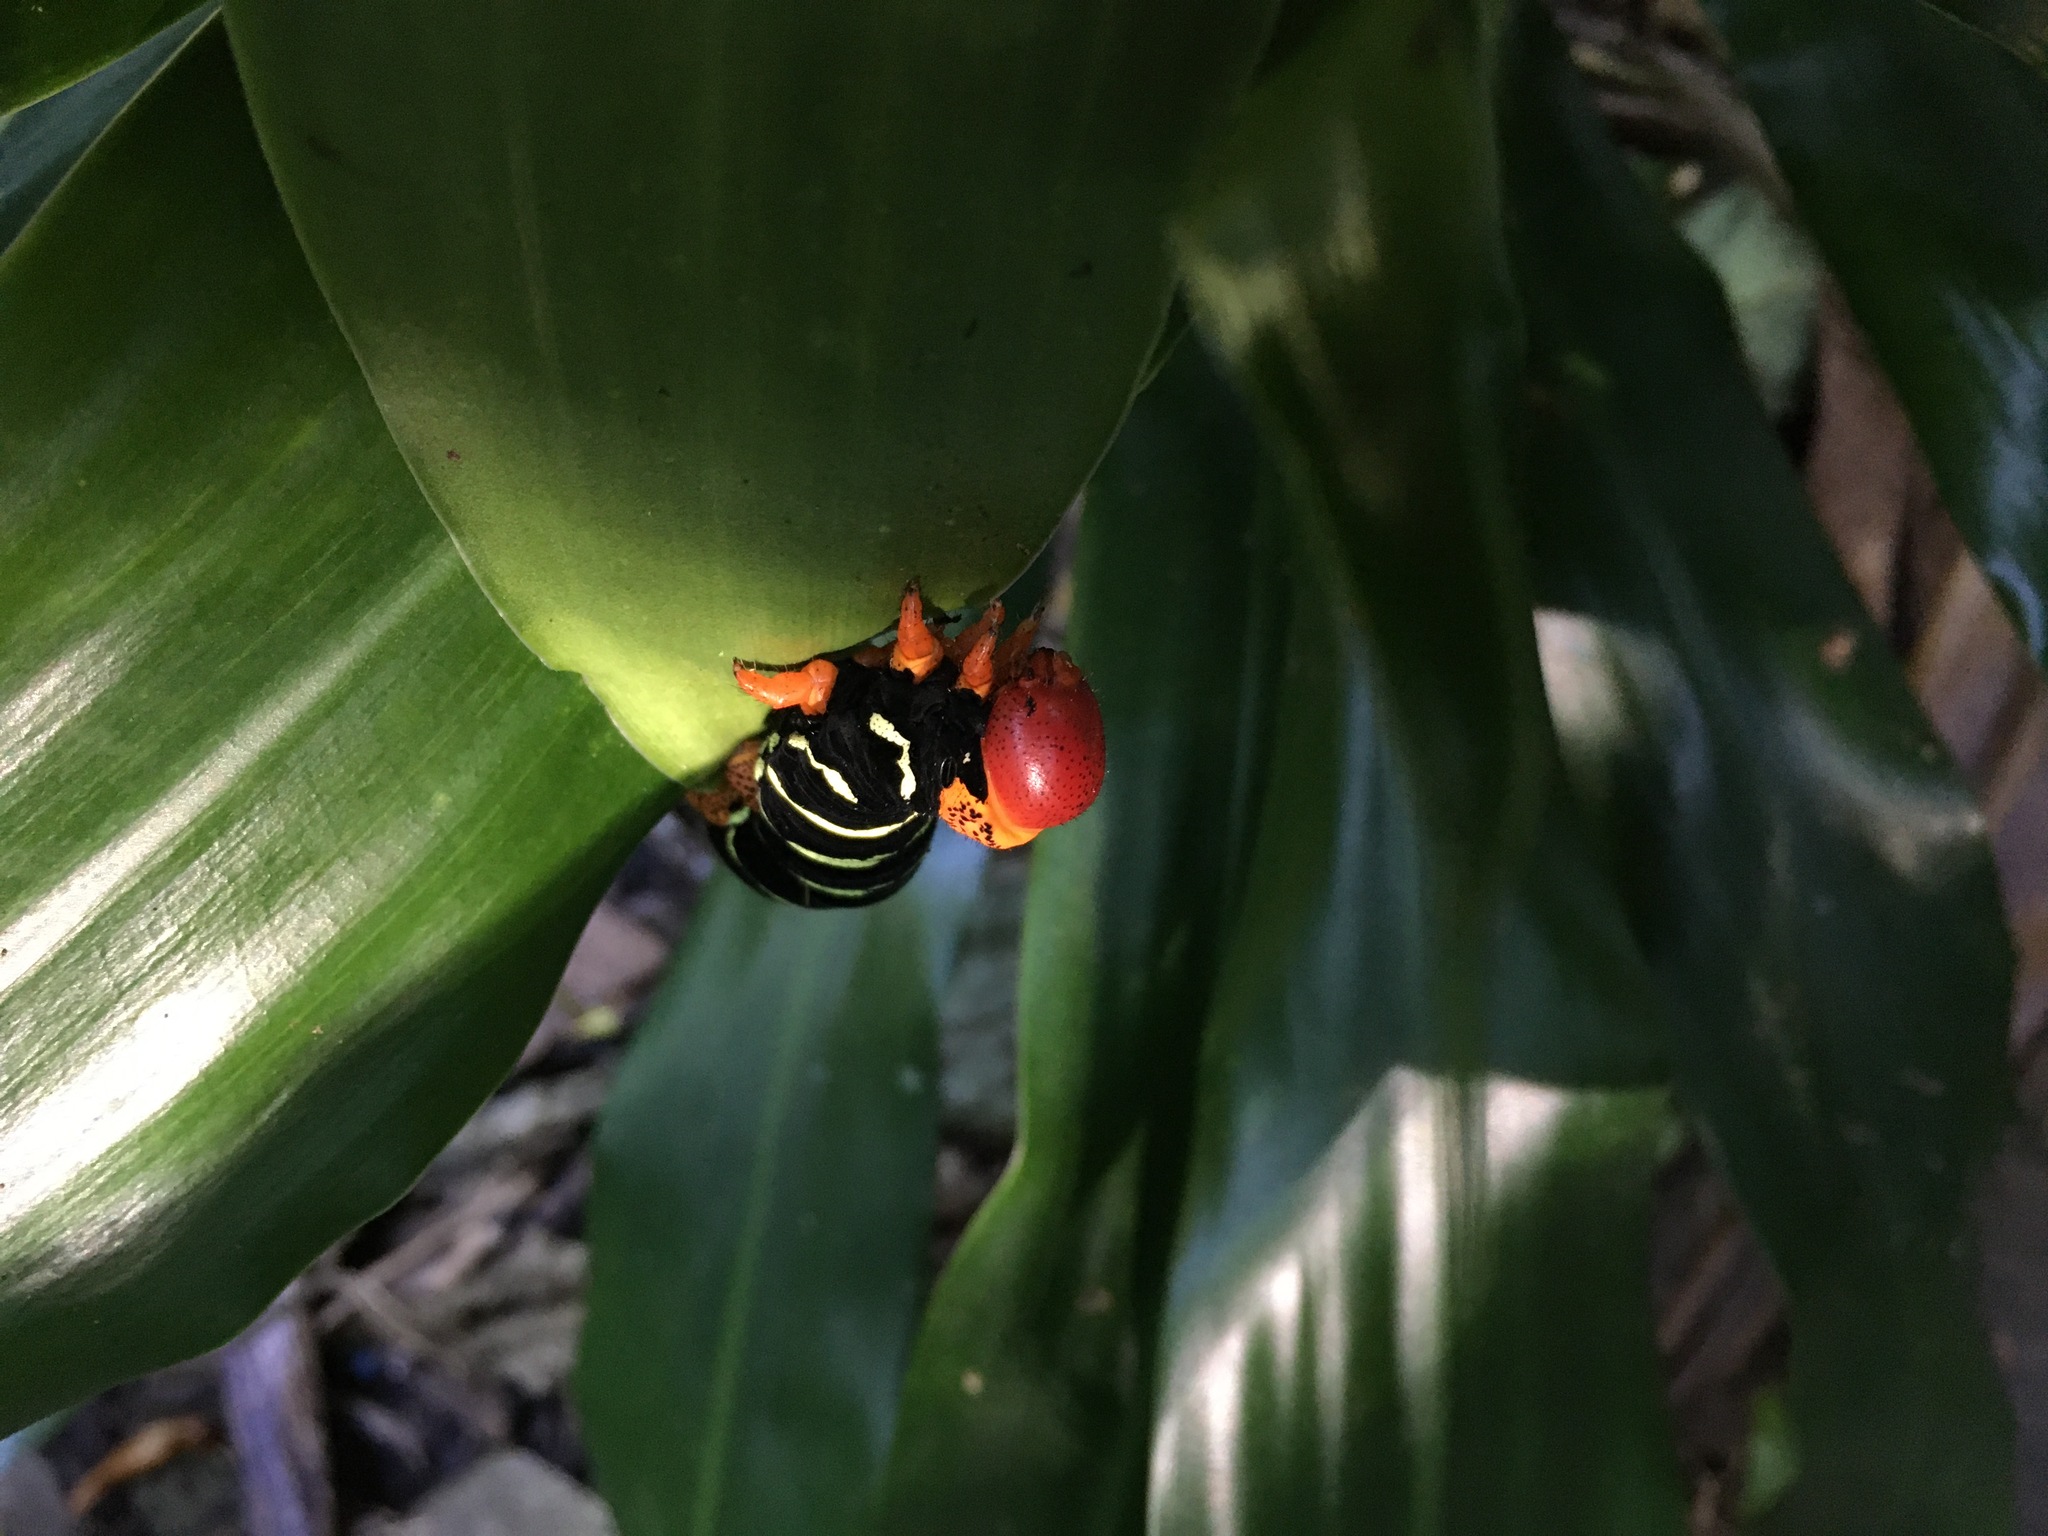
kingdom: Animalia
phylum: Arthropoda
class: Insecta
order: Lepidoptera
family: Sphingidae
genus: Pseudosphinx
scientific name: Pseudosphinx tetrio
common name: Tetrio sphinx
